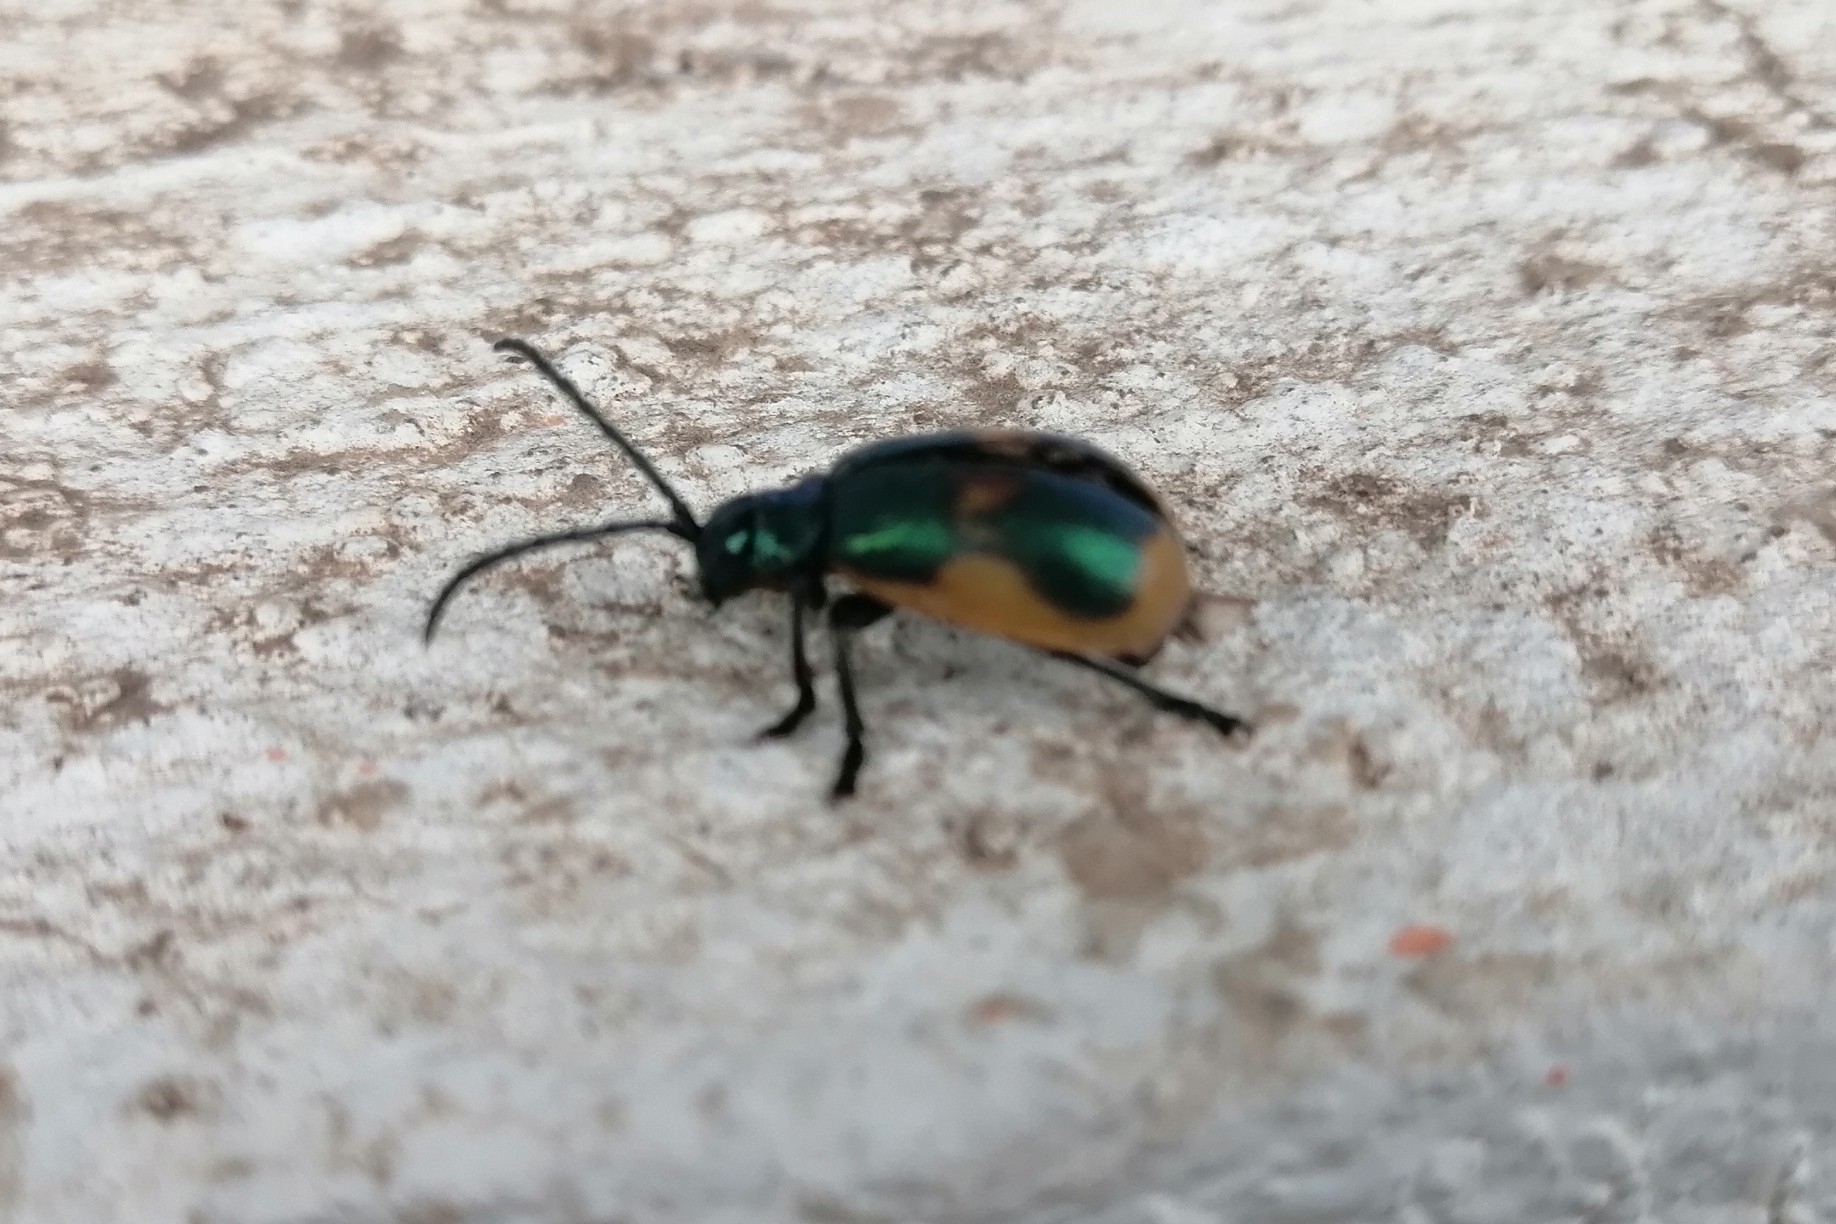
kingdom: Animalia
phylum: Arthropoda
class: Insecta
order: Coleoptera
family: Chrysomelidae
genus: Monocesta
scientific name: Monocesta
